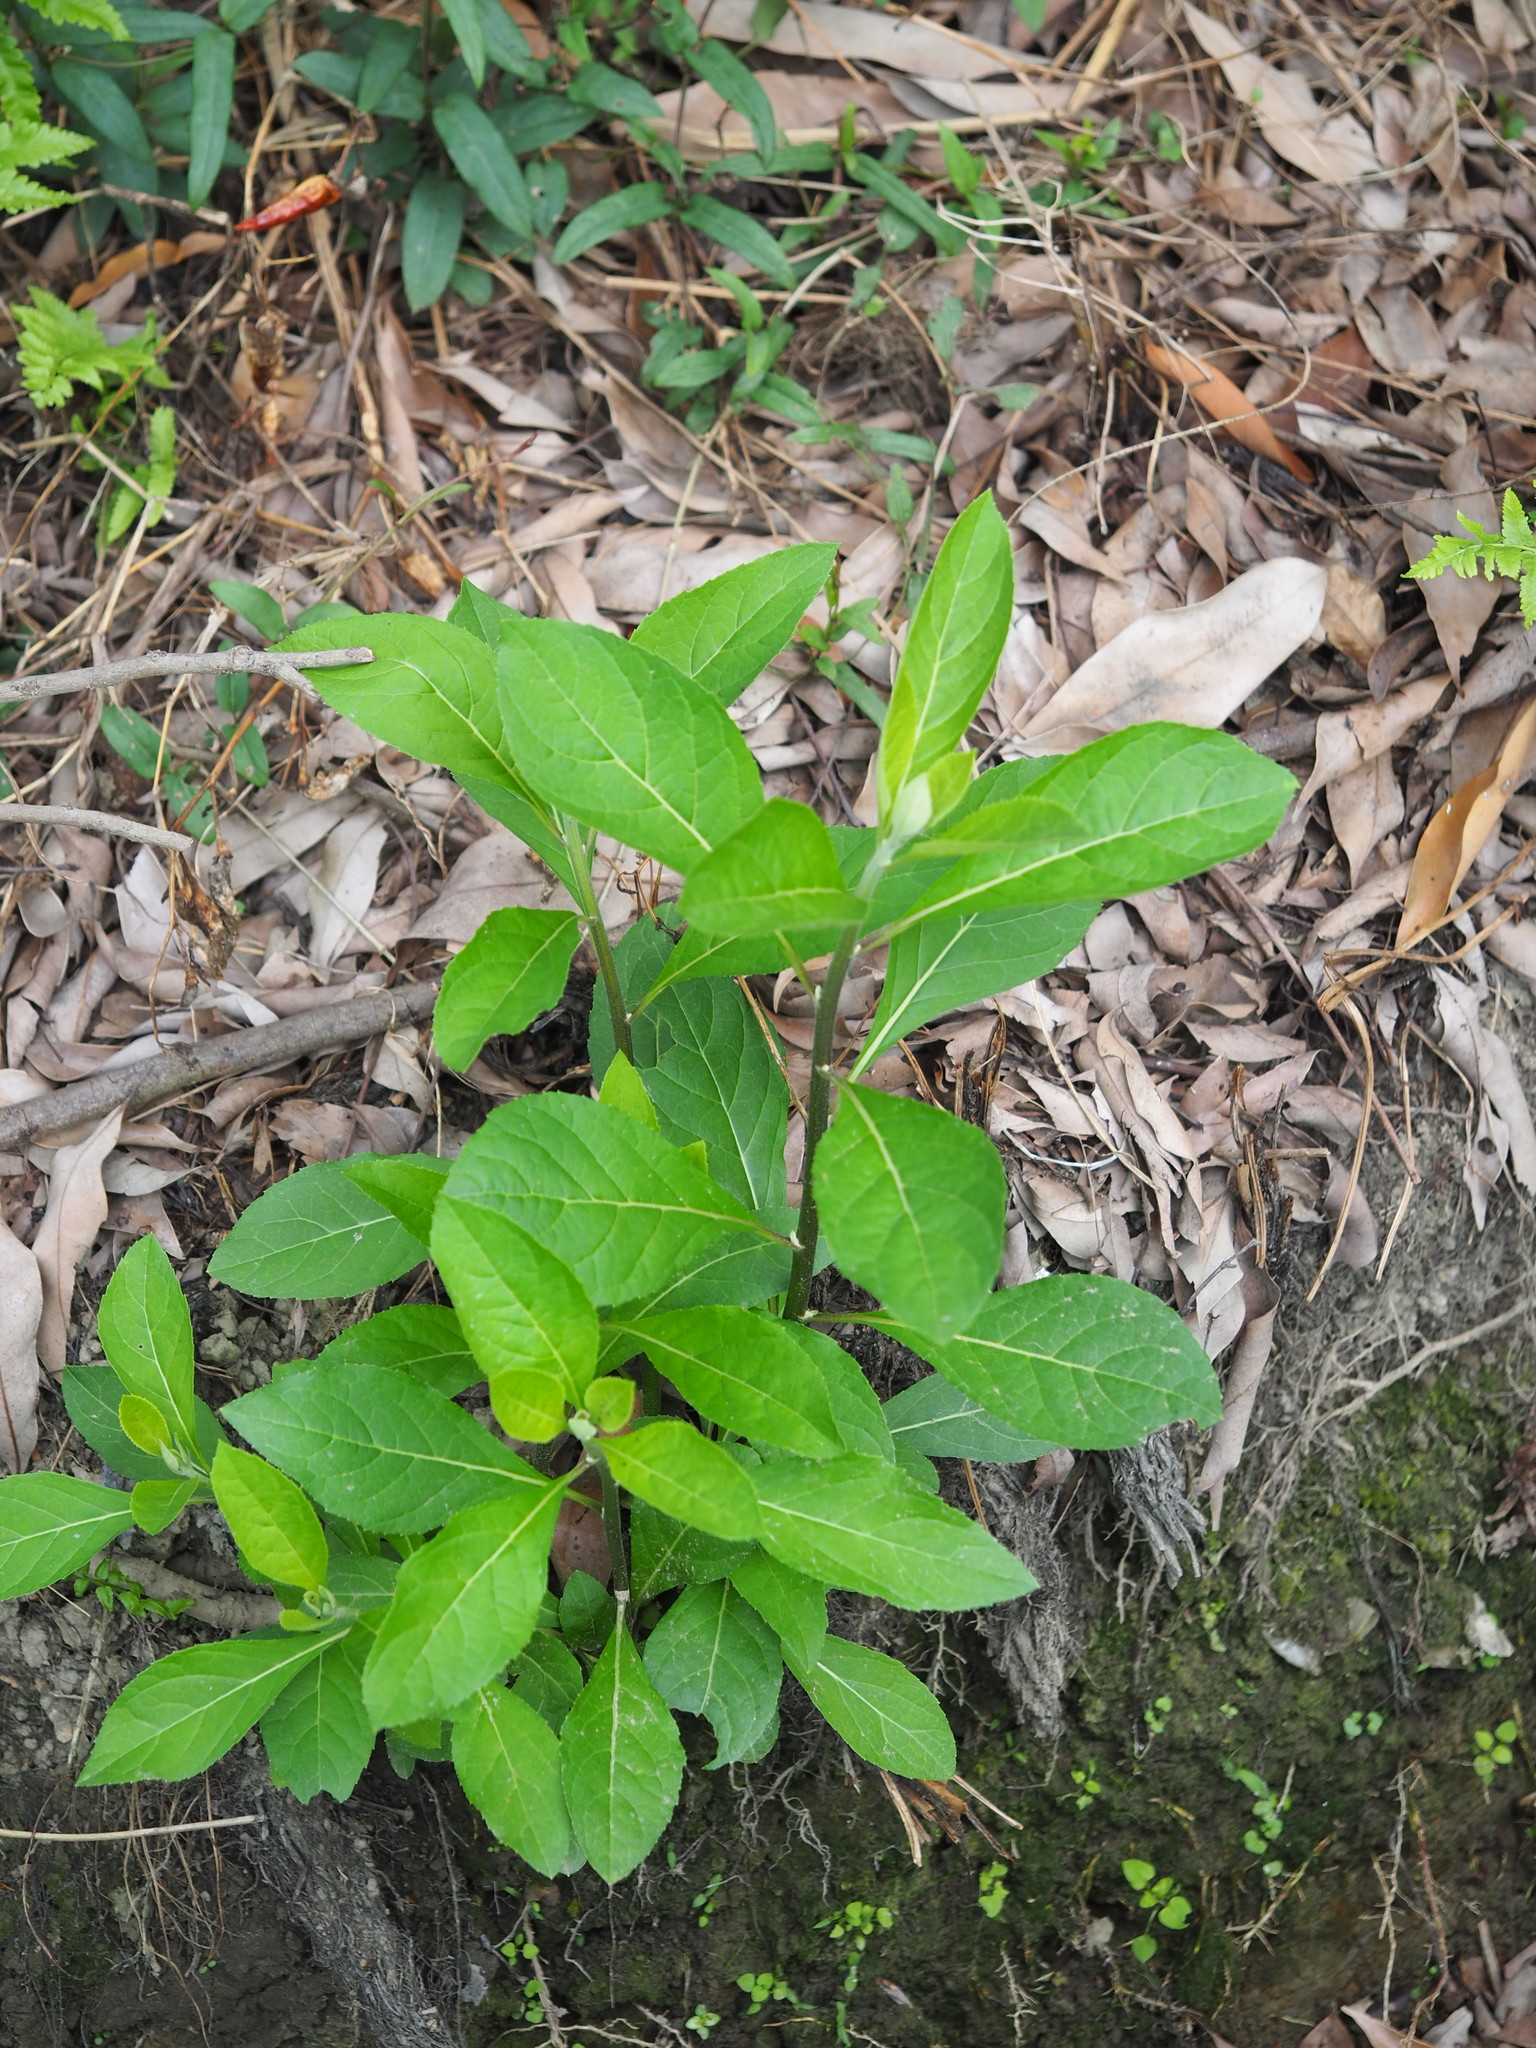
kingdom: Plantae
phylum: Tracheophyta
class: Magnoliopsida
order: Asterales
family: Asteraceae
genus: Gymnanthemum
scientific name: Gymnanthemum amygdalinum
